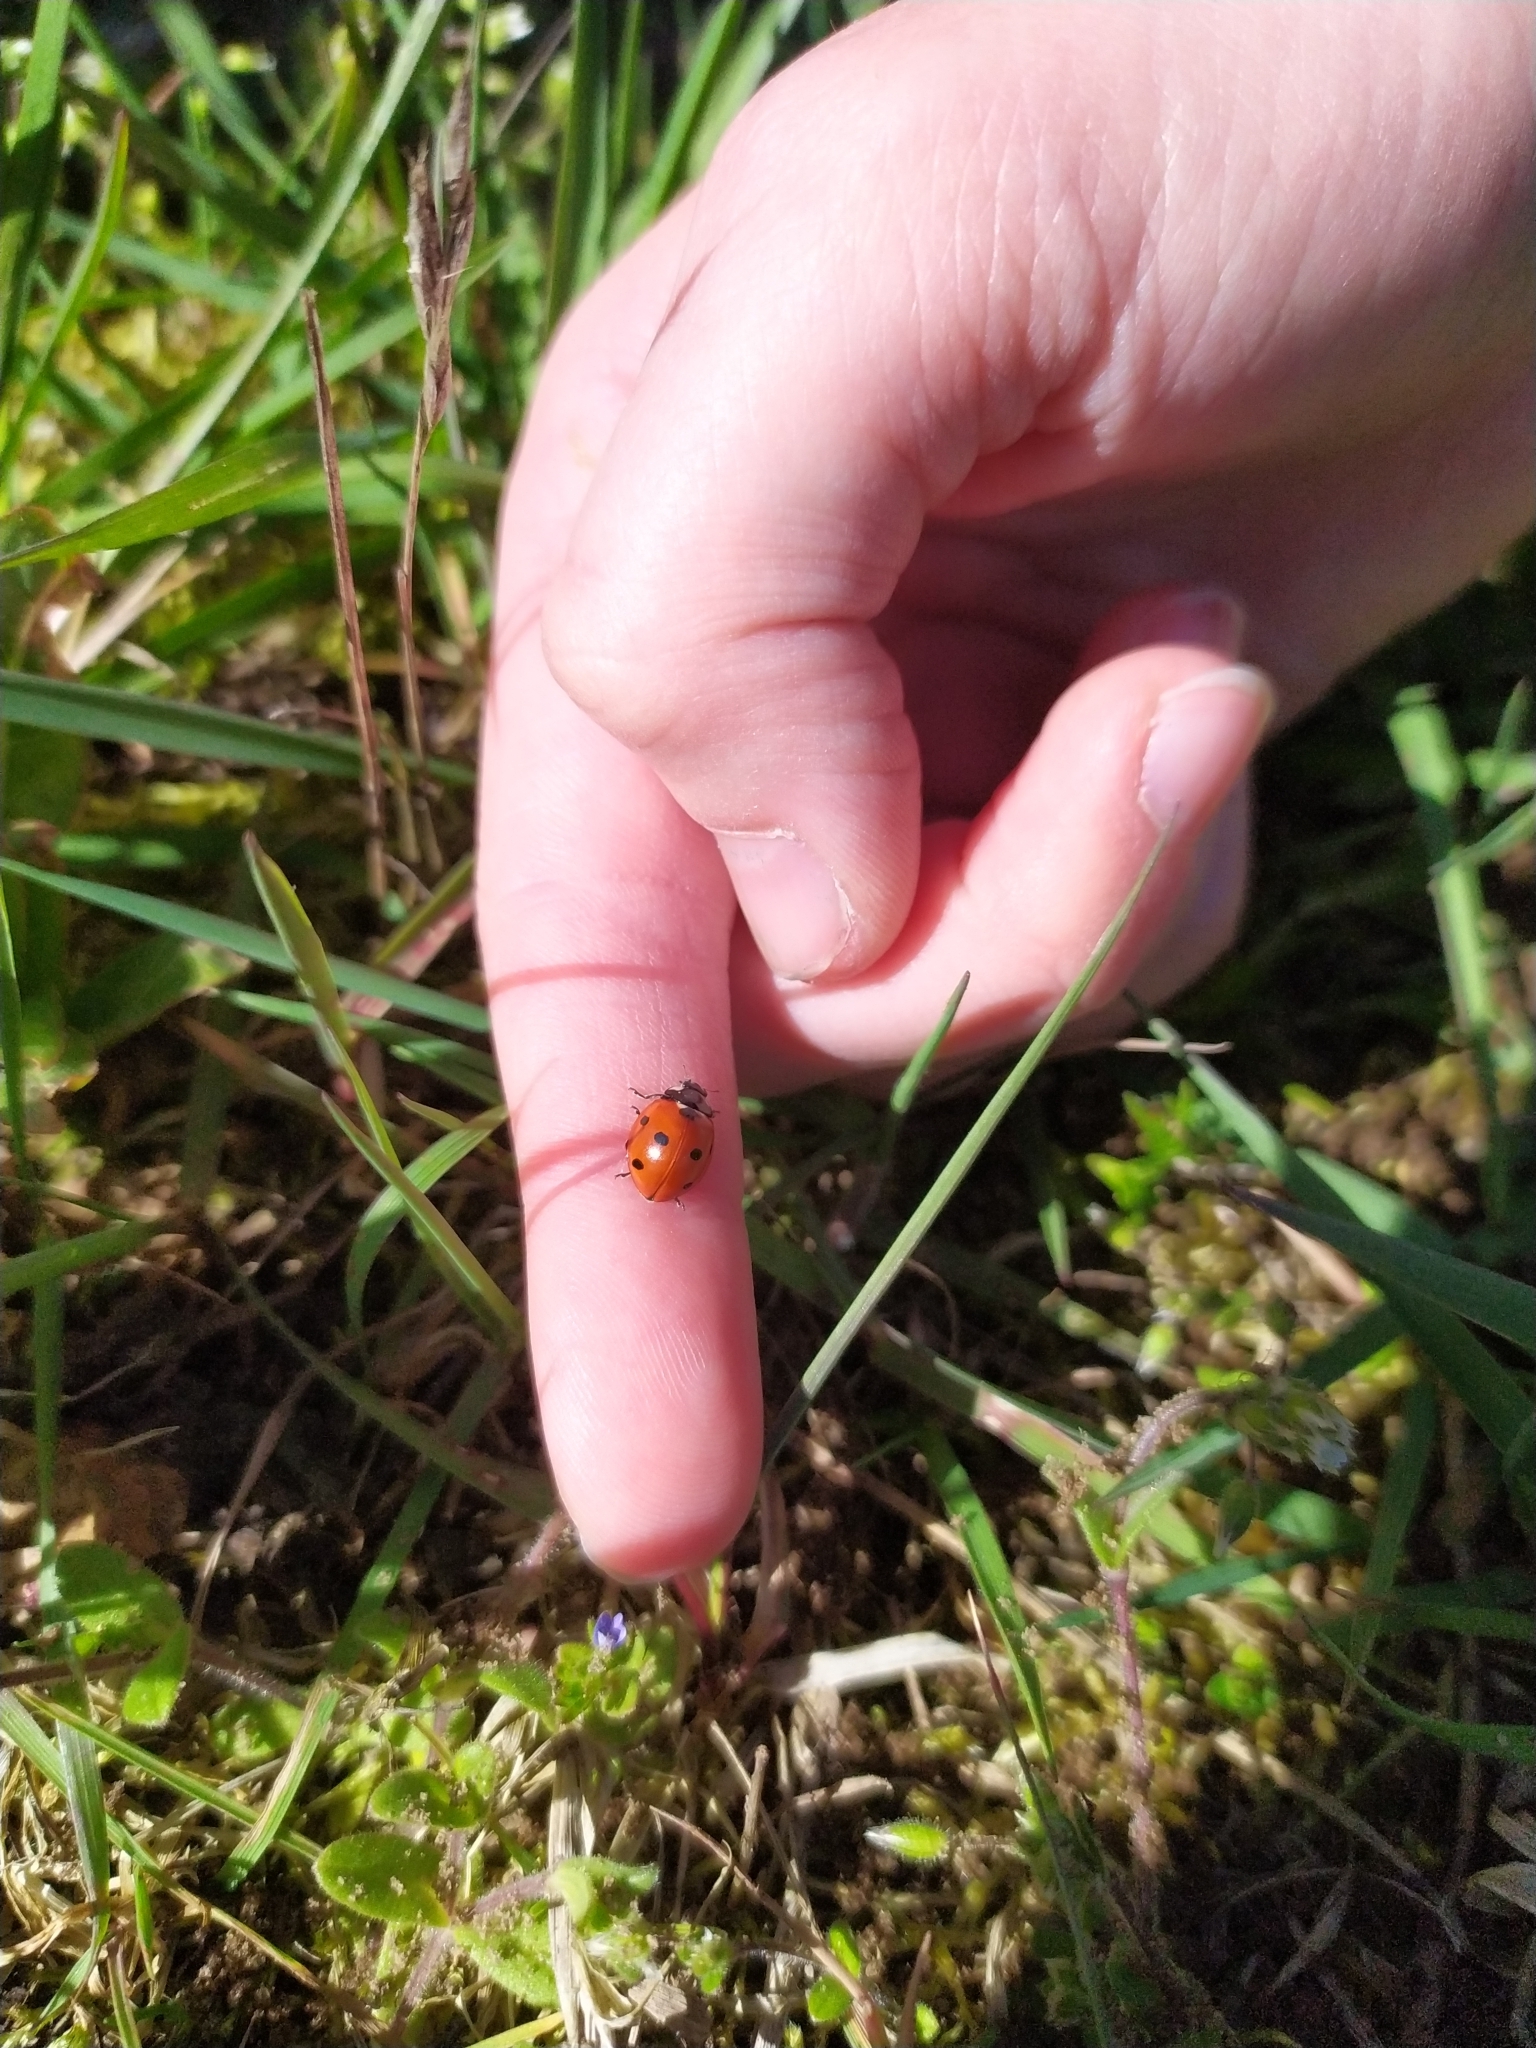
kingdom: Animalia
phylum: Arthropoda
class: Insecta
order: Coleoptera
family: Coccinellidae
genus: Coccinella
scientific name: Coccinella septempunctata
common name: Sevenspotted lady beetle
